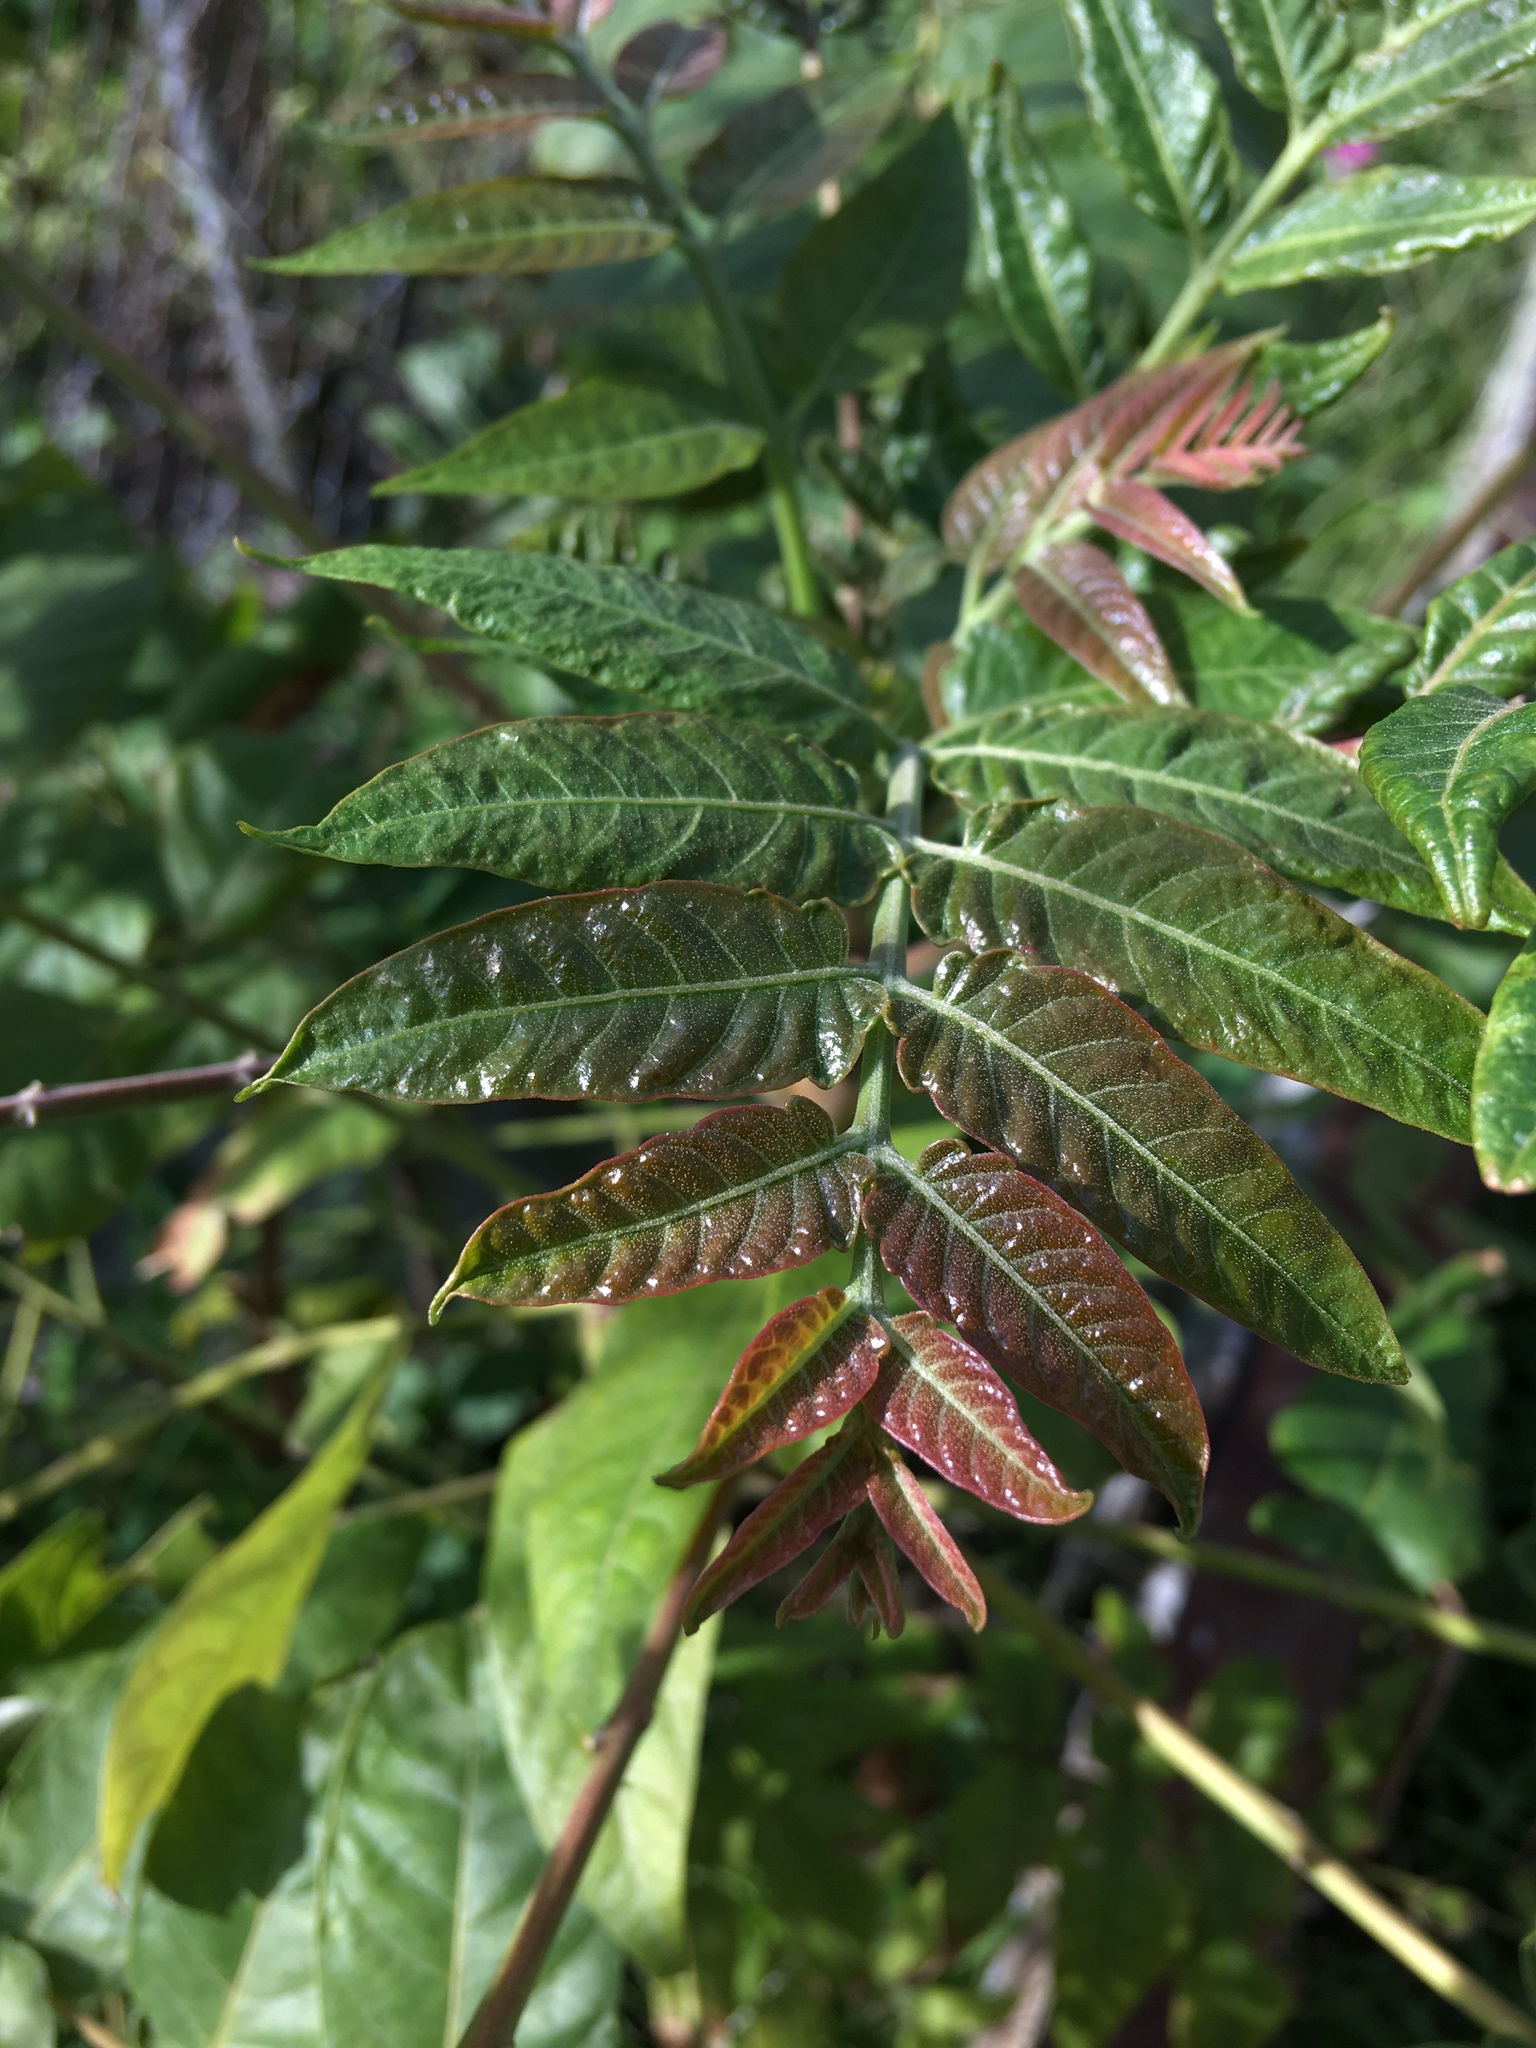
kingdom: Plantae
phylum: Tracheophyta
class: Magnoliopsida
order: Sapindales
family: Simaroubaceae
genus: Ailanthus
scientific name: Ailanthus altissima
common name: Tree-of-heaven
